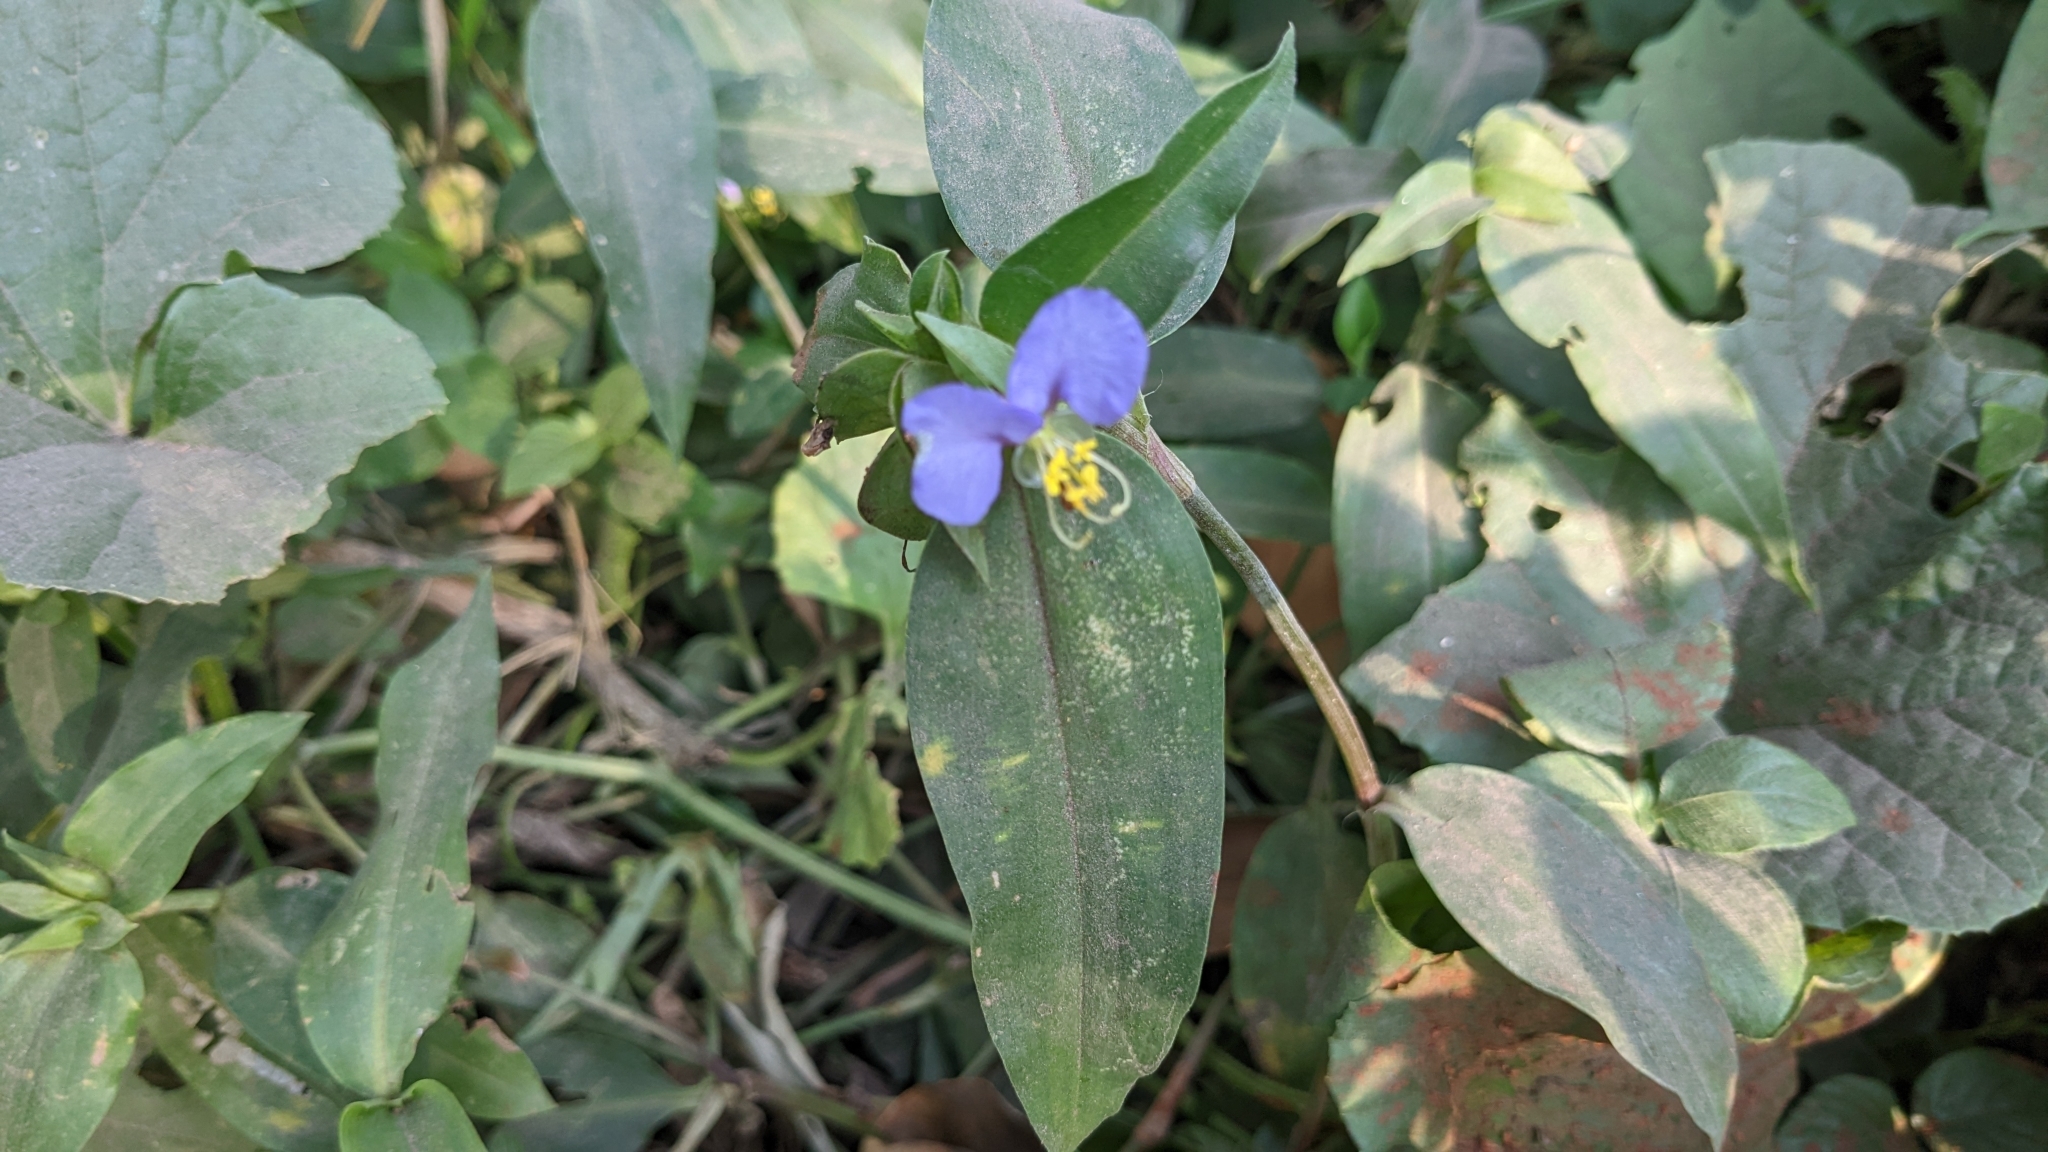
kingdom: Plantae
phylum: Tracheophyta
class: Liliopsida
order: Commelinales
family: Commelinaceae
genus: Commelina
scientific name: Commelina benghalensis
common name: Jio
